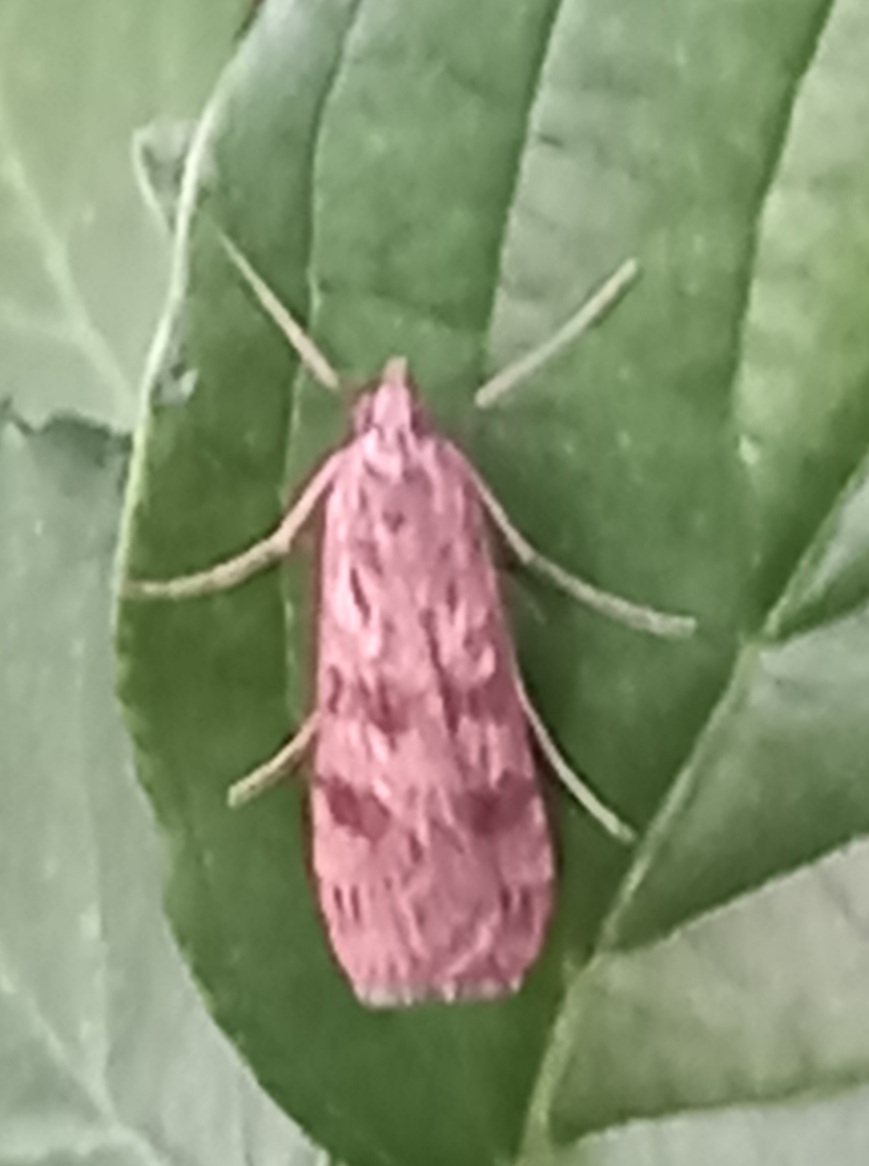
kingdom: Animalia
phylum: Arthropoda
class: Insecta
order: Lepidoptera
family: Crambidae
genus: Nomophila
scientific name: Nomophila noctuella
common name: Rush veneer
